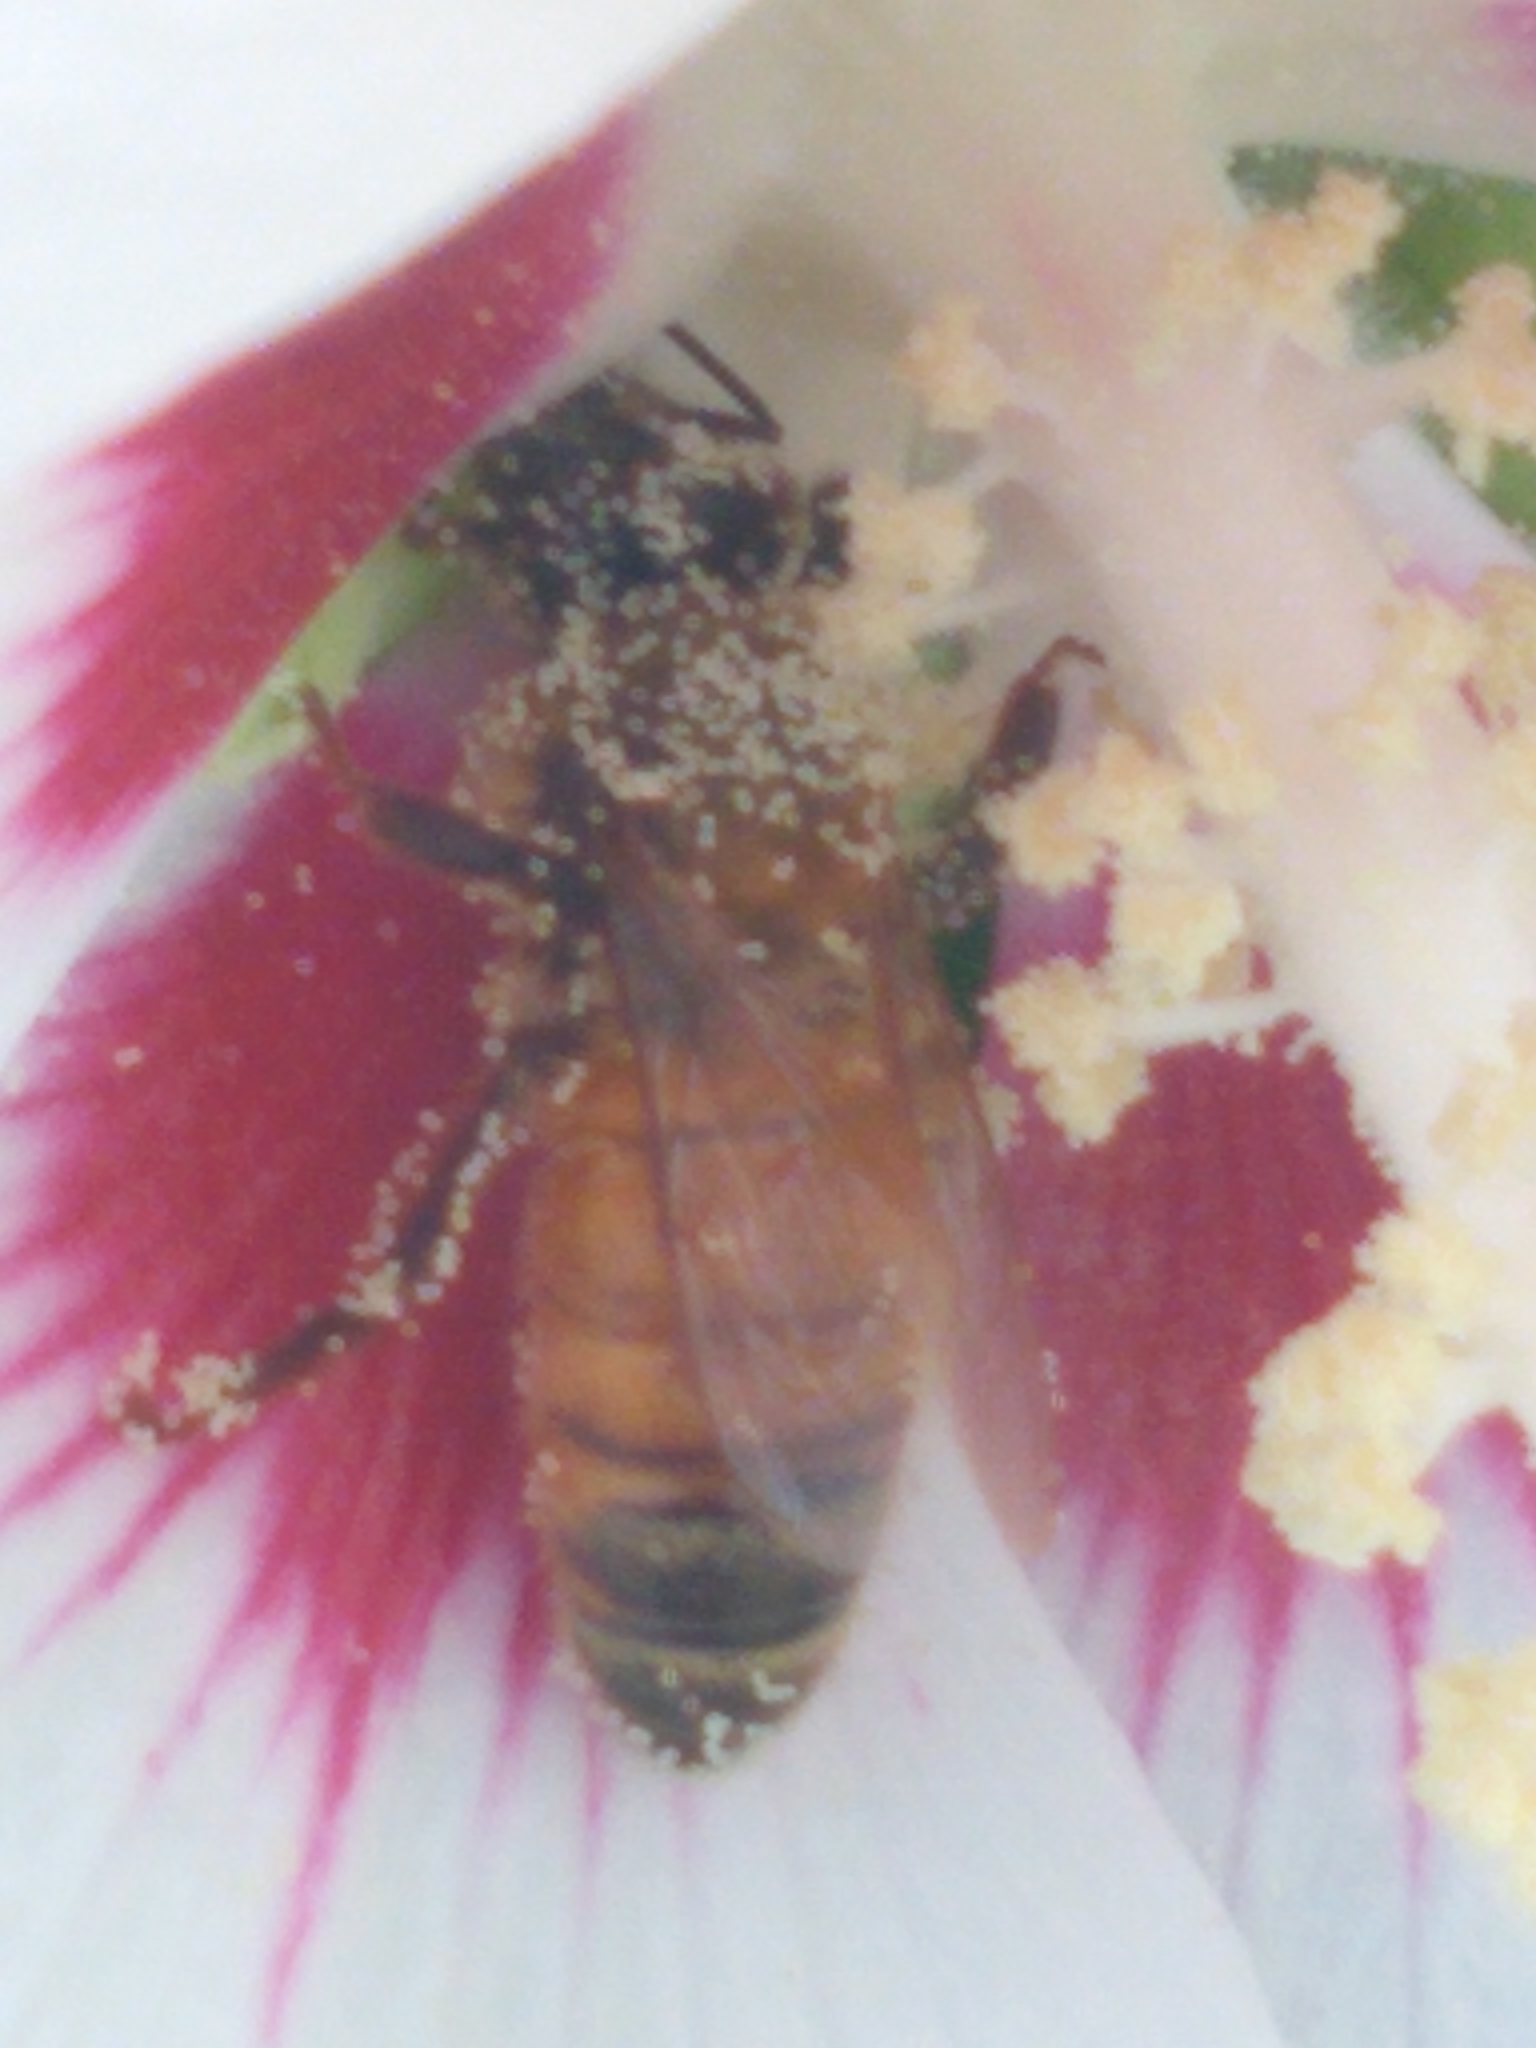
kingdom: Animalia
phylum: Arthropoda
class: Insecta
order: Hymenoptera
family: Apidae
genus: Apis
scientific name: Apis mellifera
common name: Honey bee
